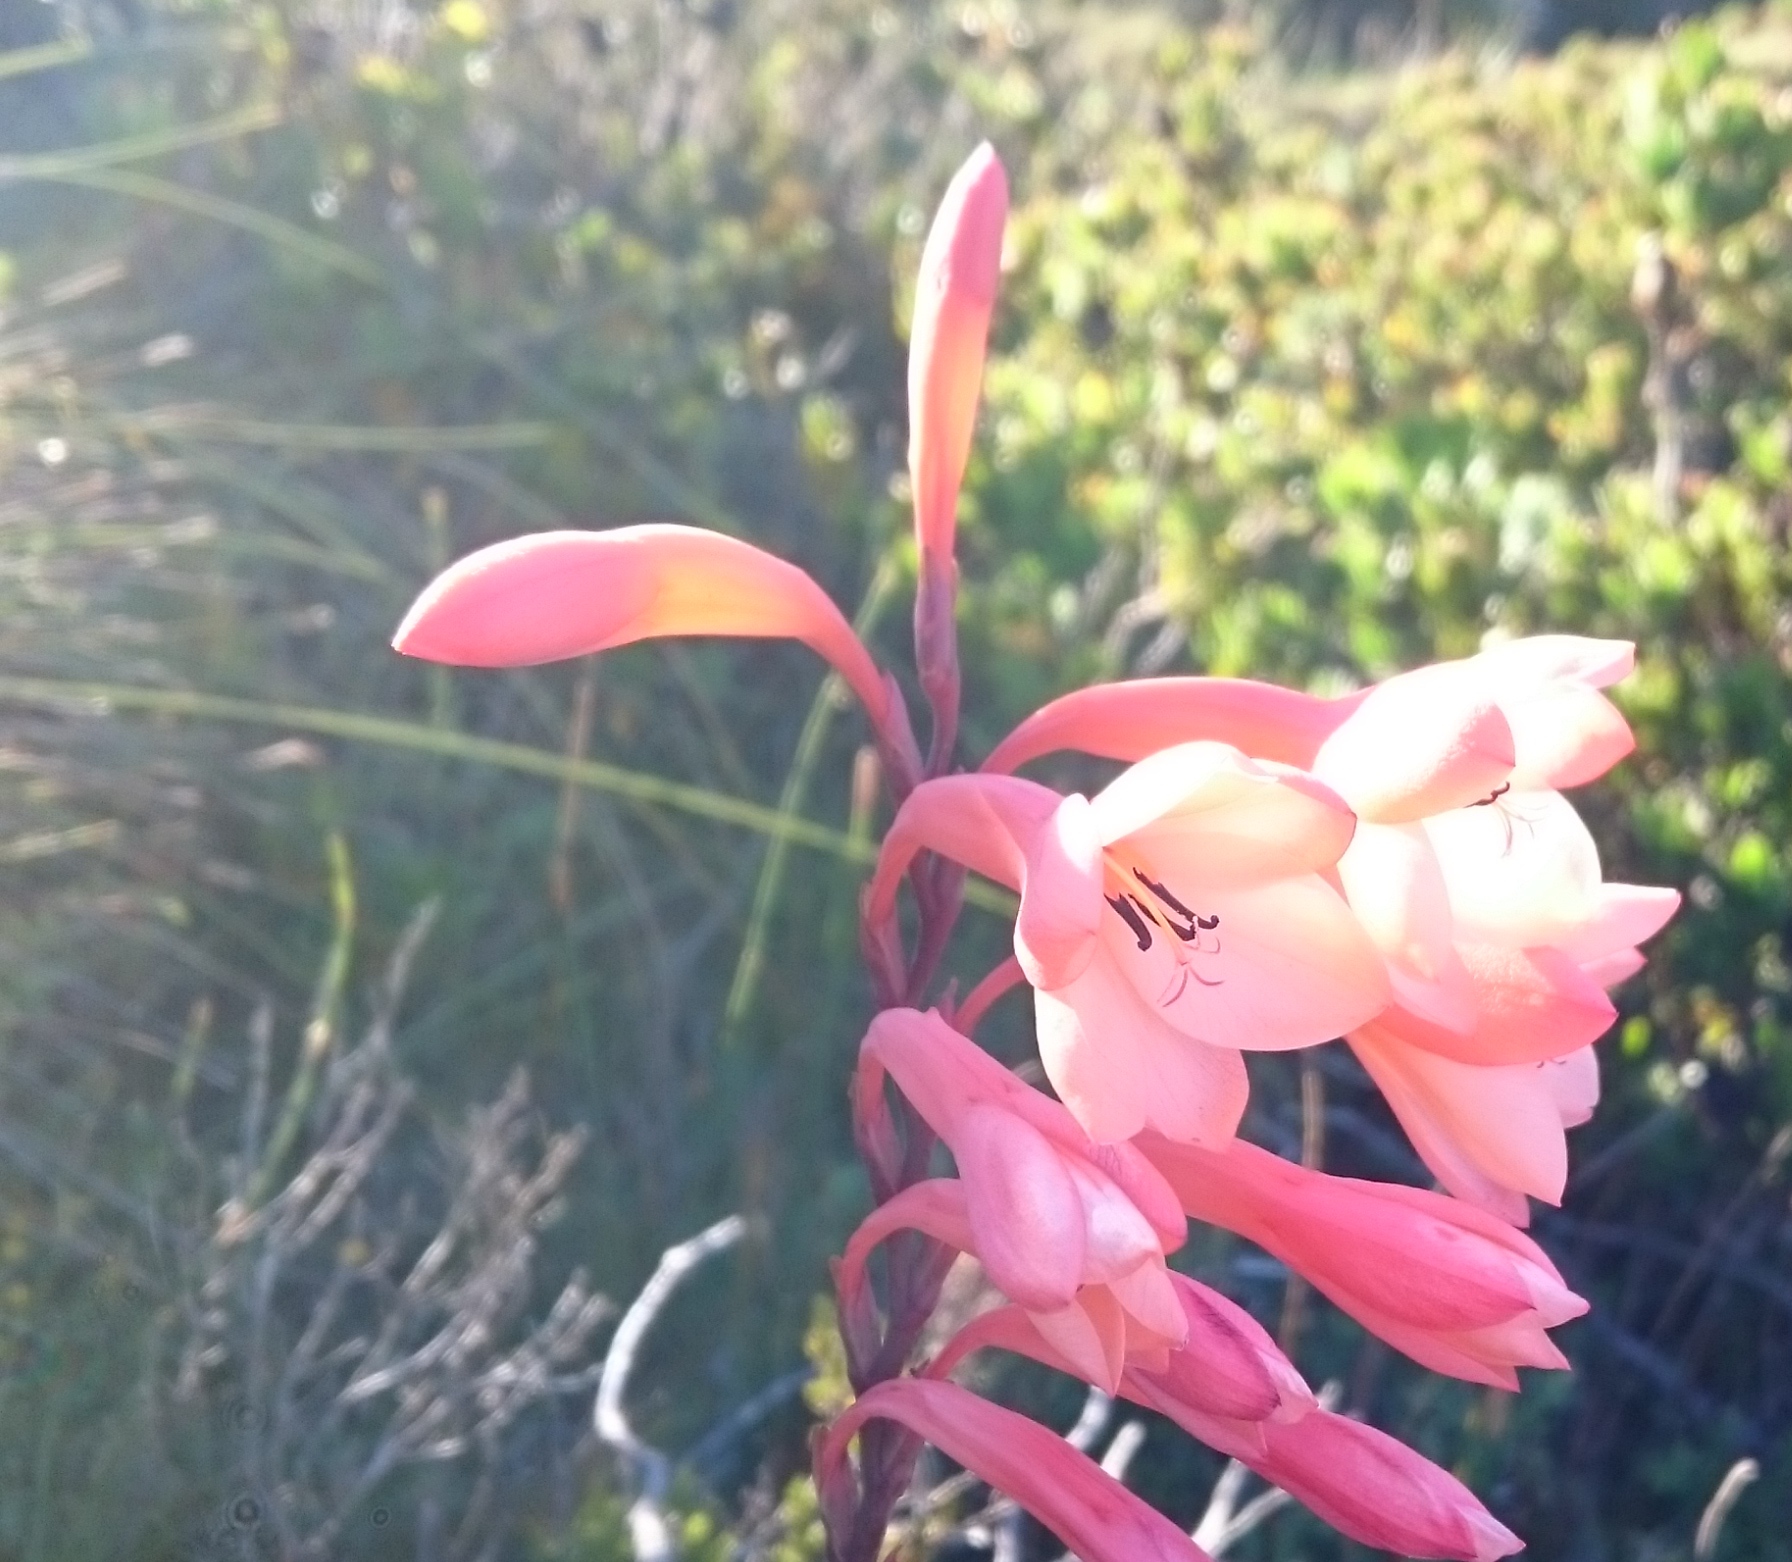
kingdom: Plantae
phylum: Tracheophyta
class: Liliopsida
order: Asparagales
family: Iridaceae
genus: Watsonia
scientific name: Watsonia tabularis
